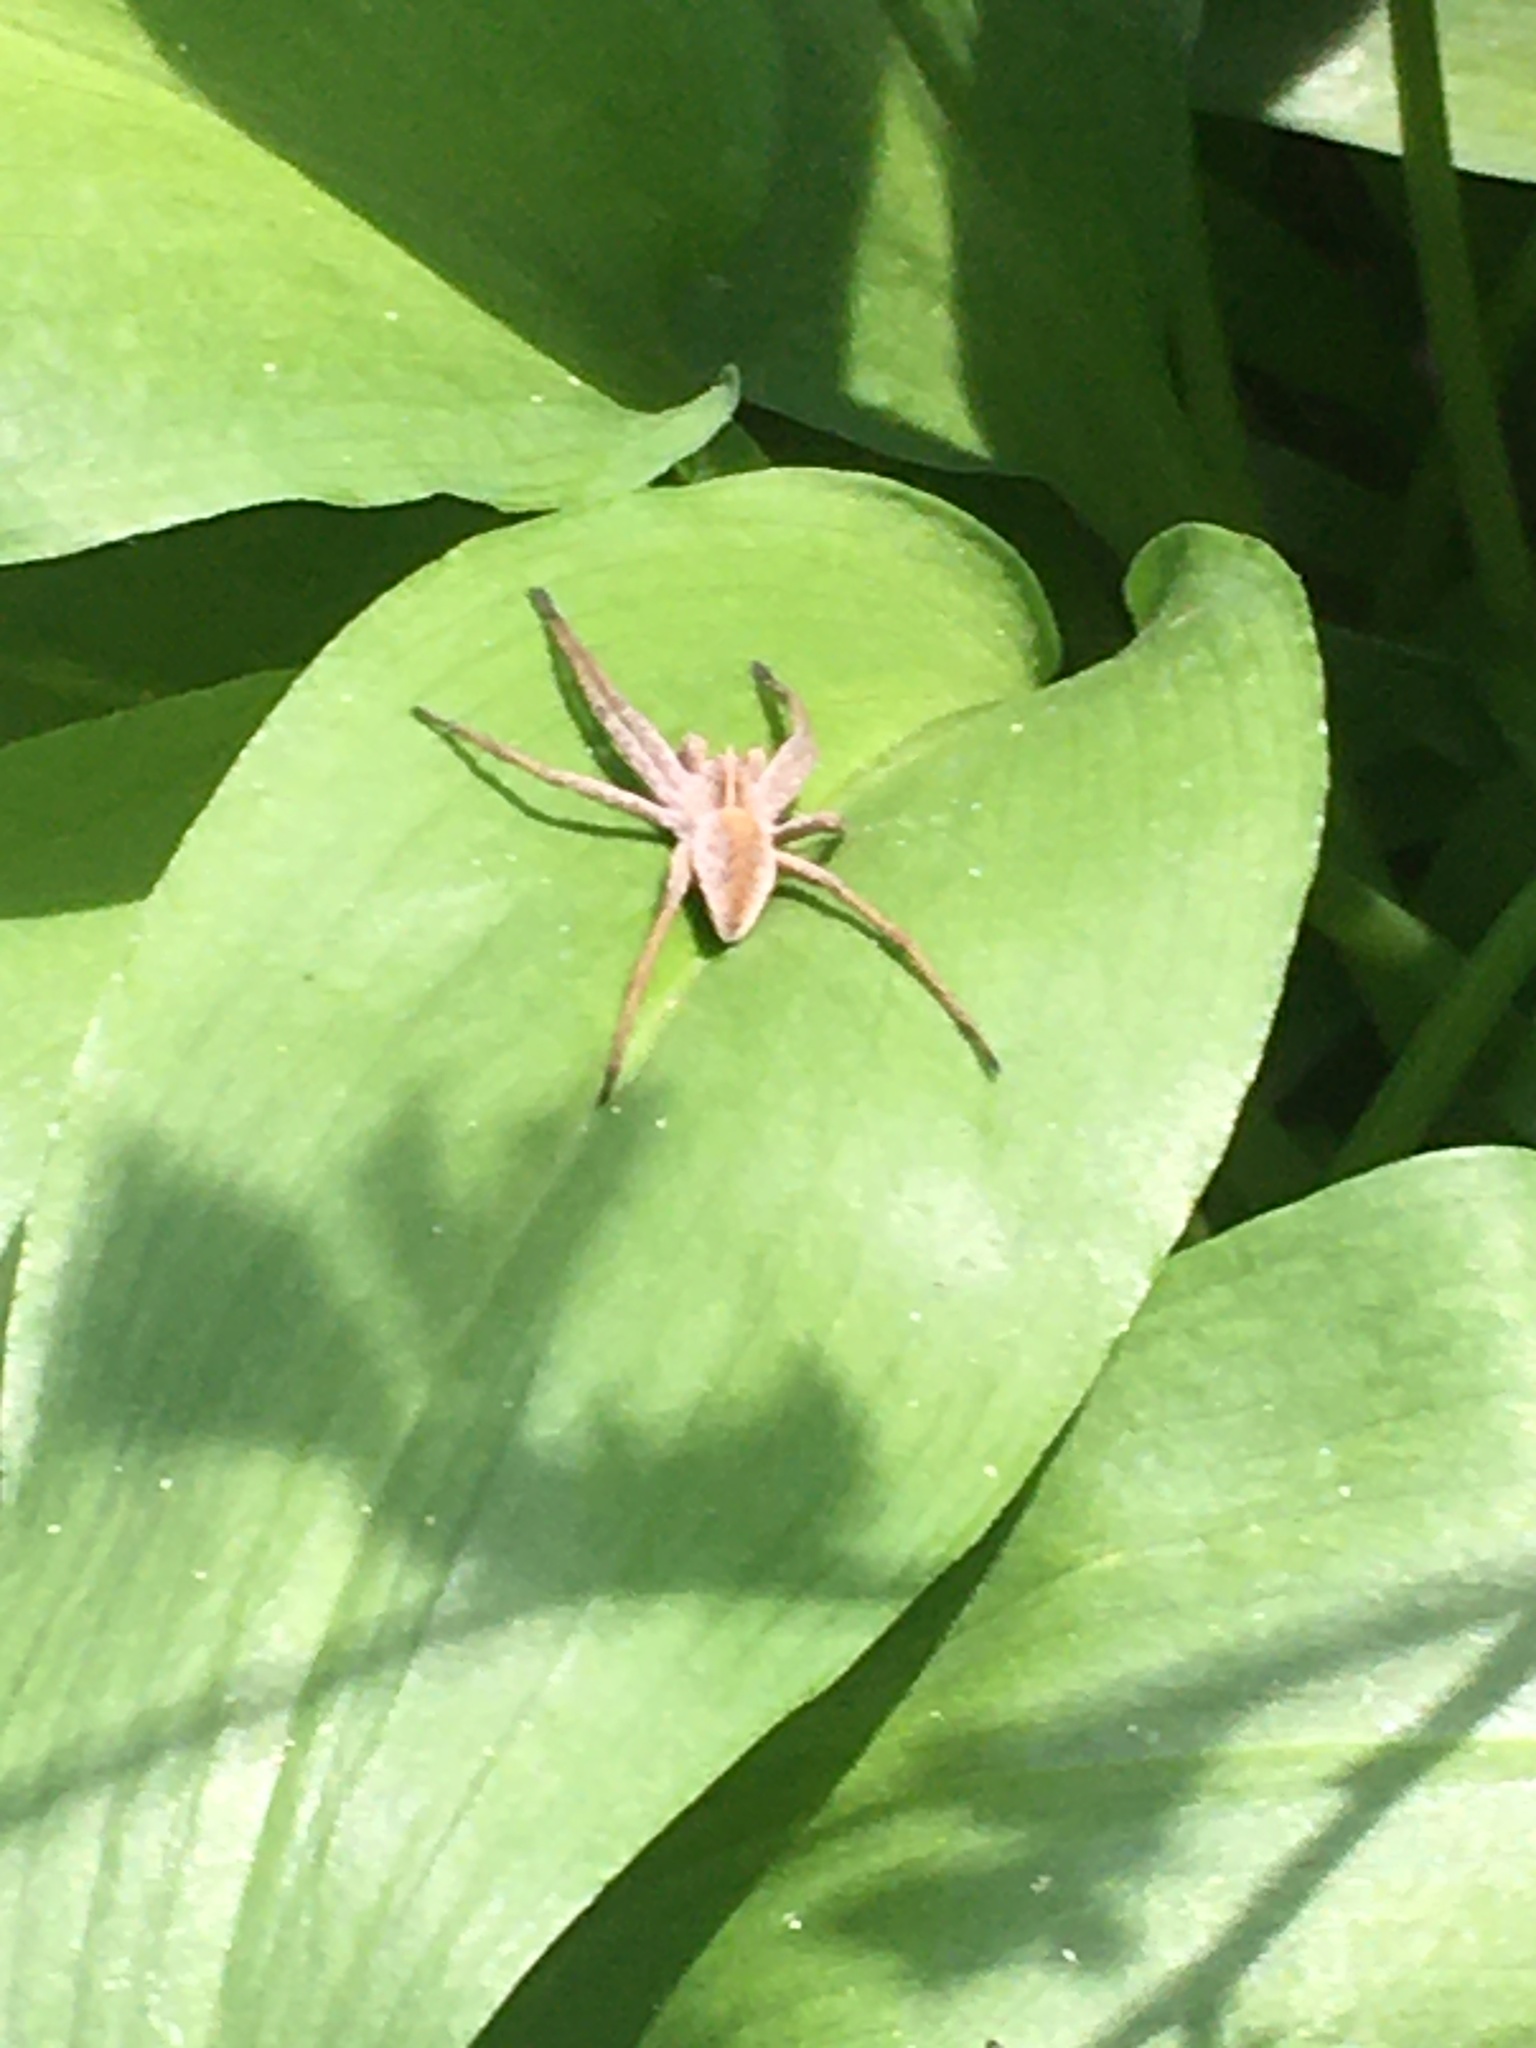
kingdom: Animalia
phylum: Arthropoda
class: Arachnida
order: Araneae
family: Pisauridae
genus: Pisaura
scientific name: Pisaura mirabilis
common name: Tent spider
